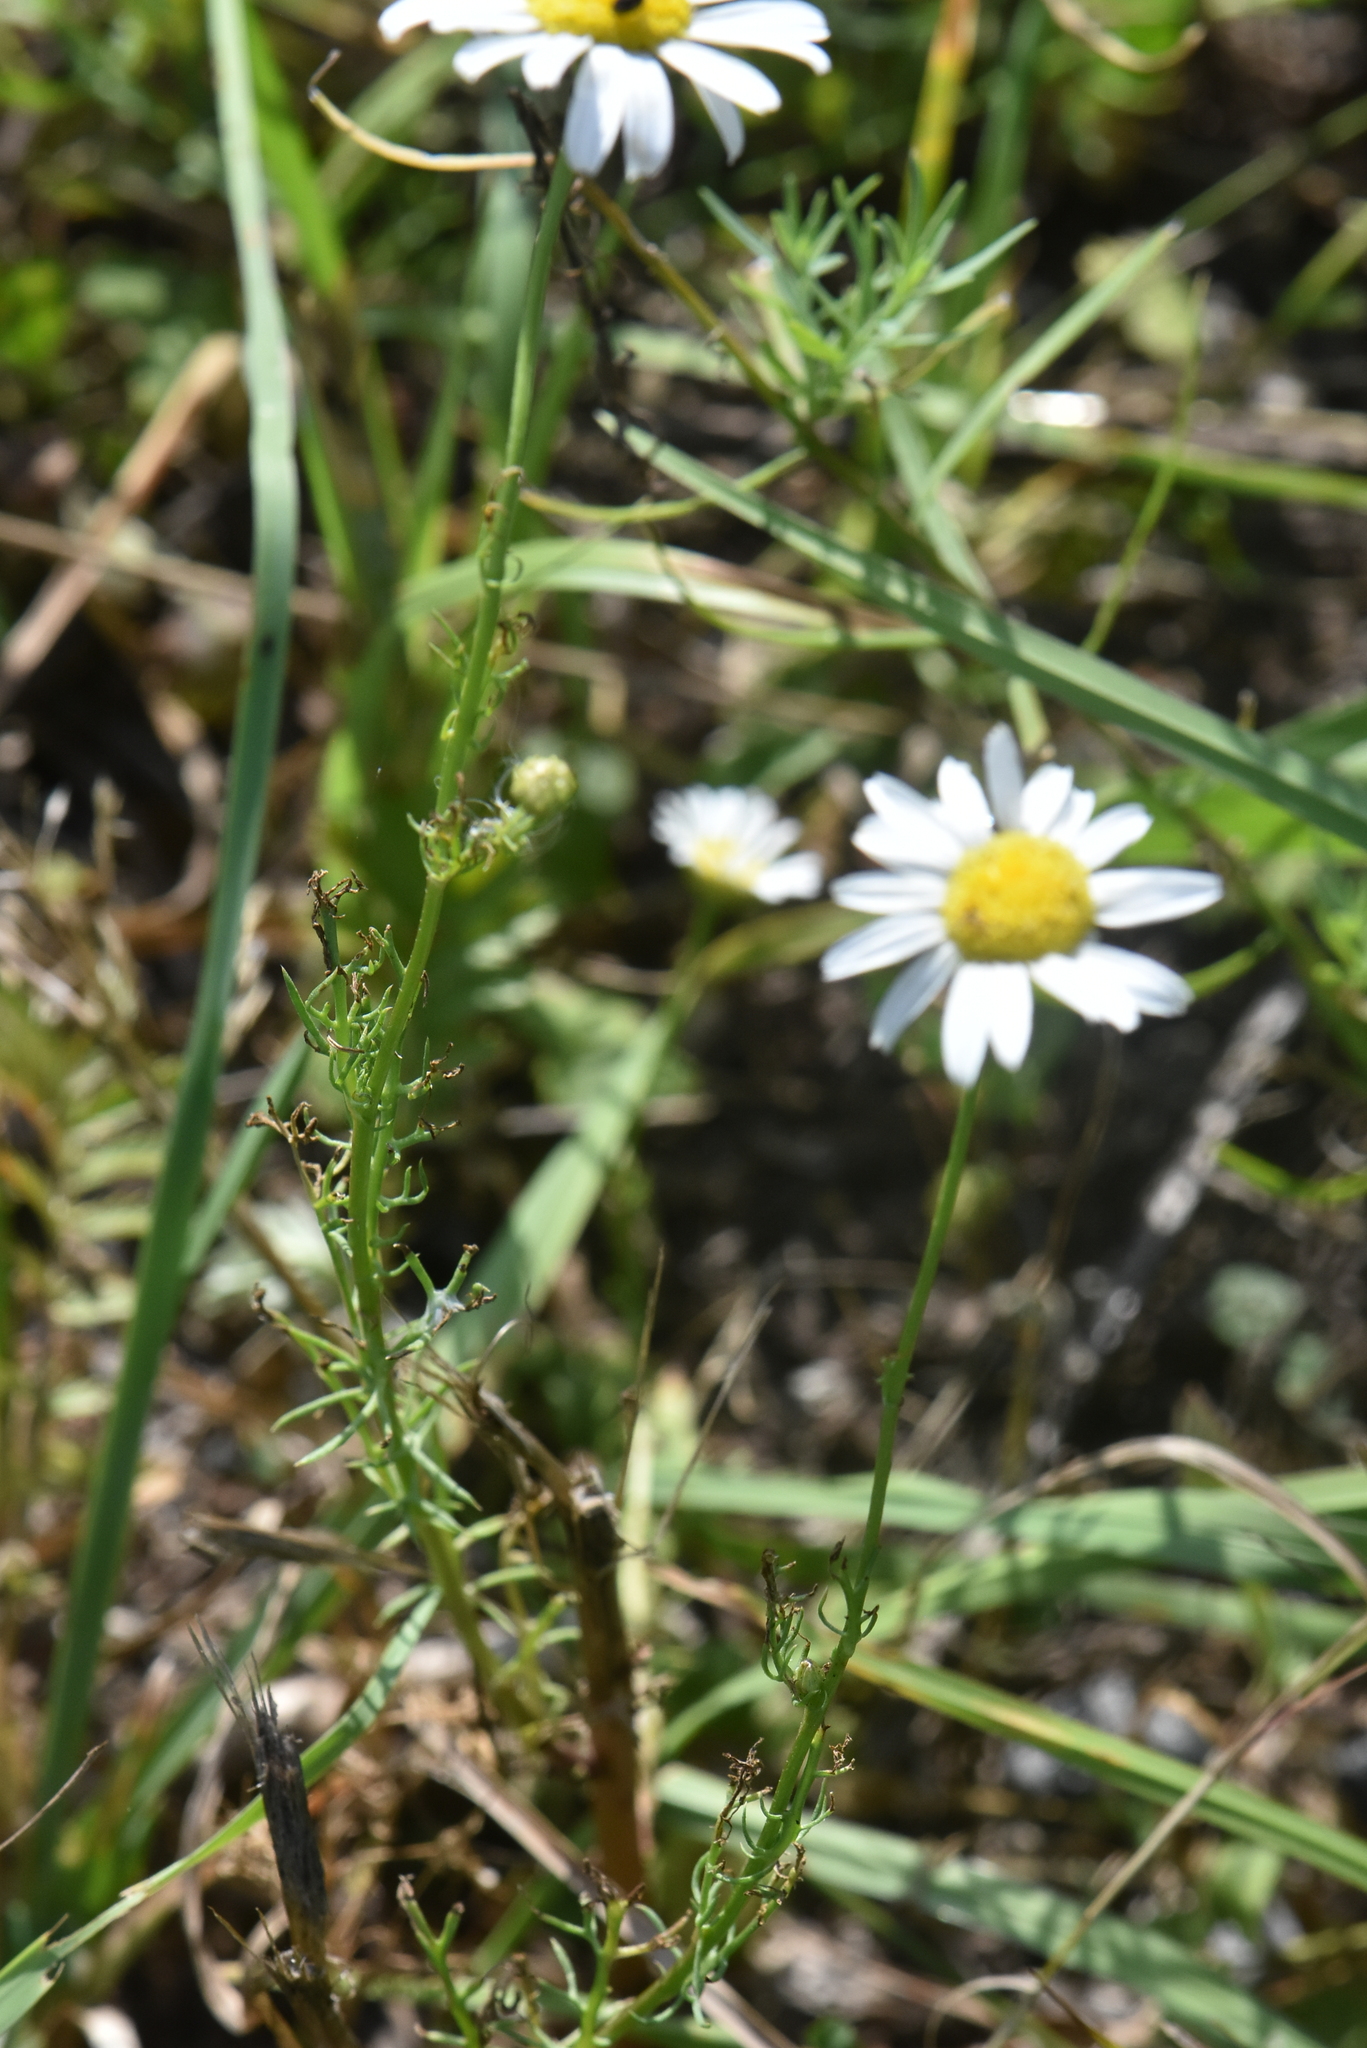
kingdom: Plantae
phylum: Tracheophyta
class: Magnoliopsida
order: Asterales
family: Asteraceae
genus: Tripleurospermum
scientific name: Tripleurospermum inodorum
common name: Scentless mayweed
